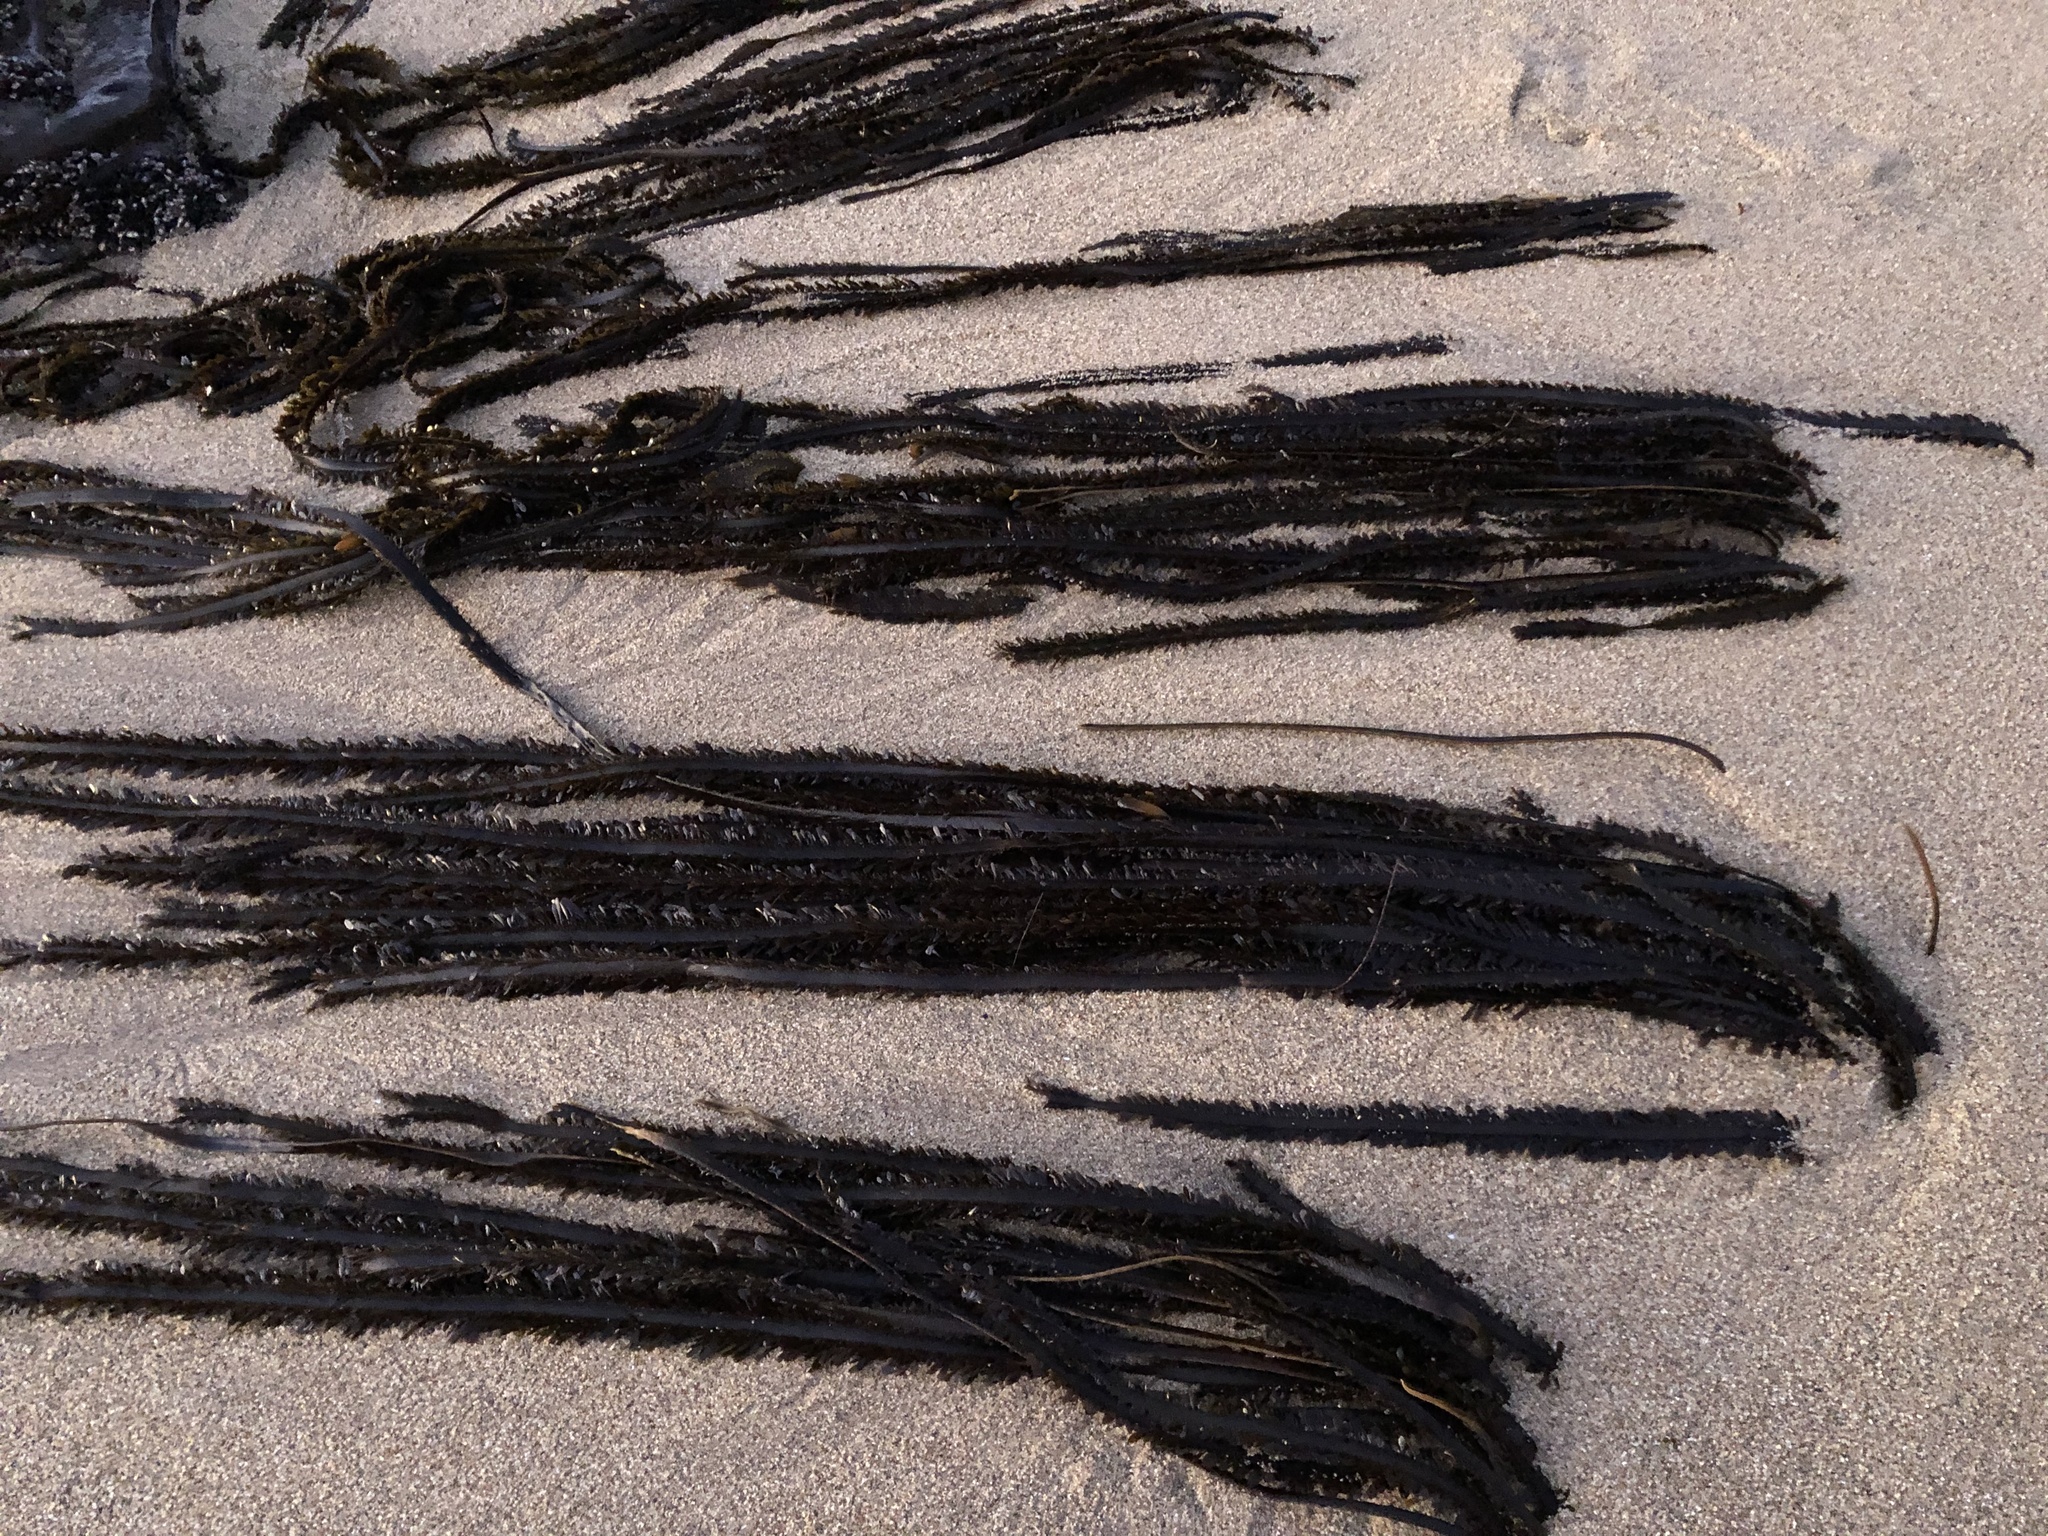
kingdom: Chromista
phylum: Ochrophyta
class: Phaeophyceae
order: Laminariales
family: Lessoniaceae
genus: Egregia
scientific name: Egregia menziesii
